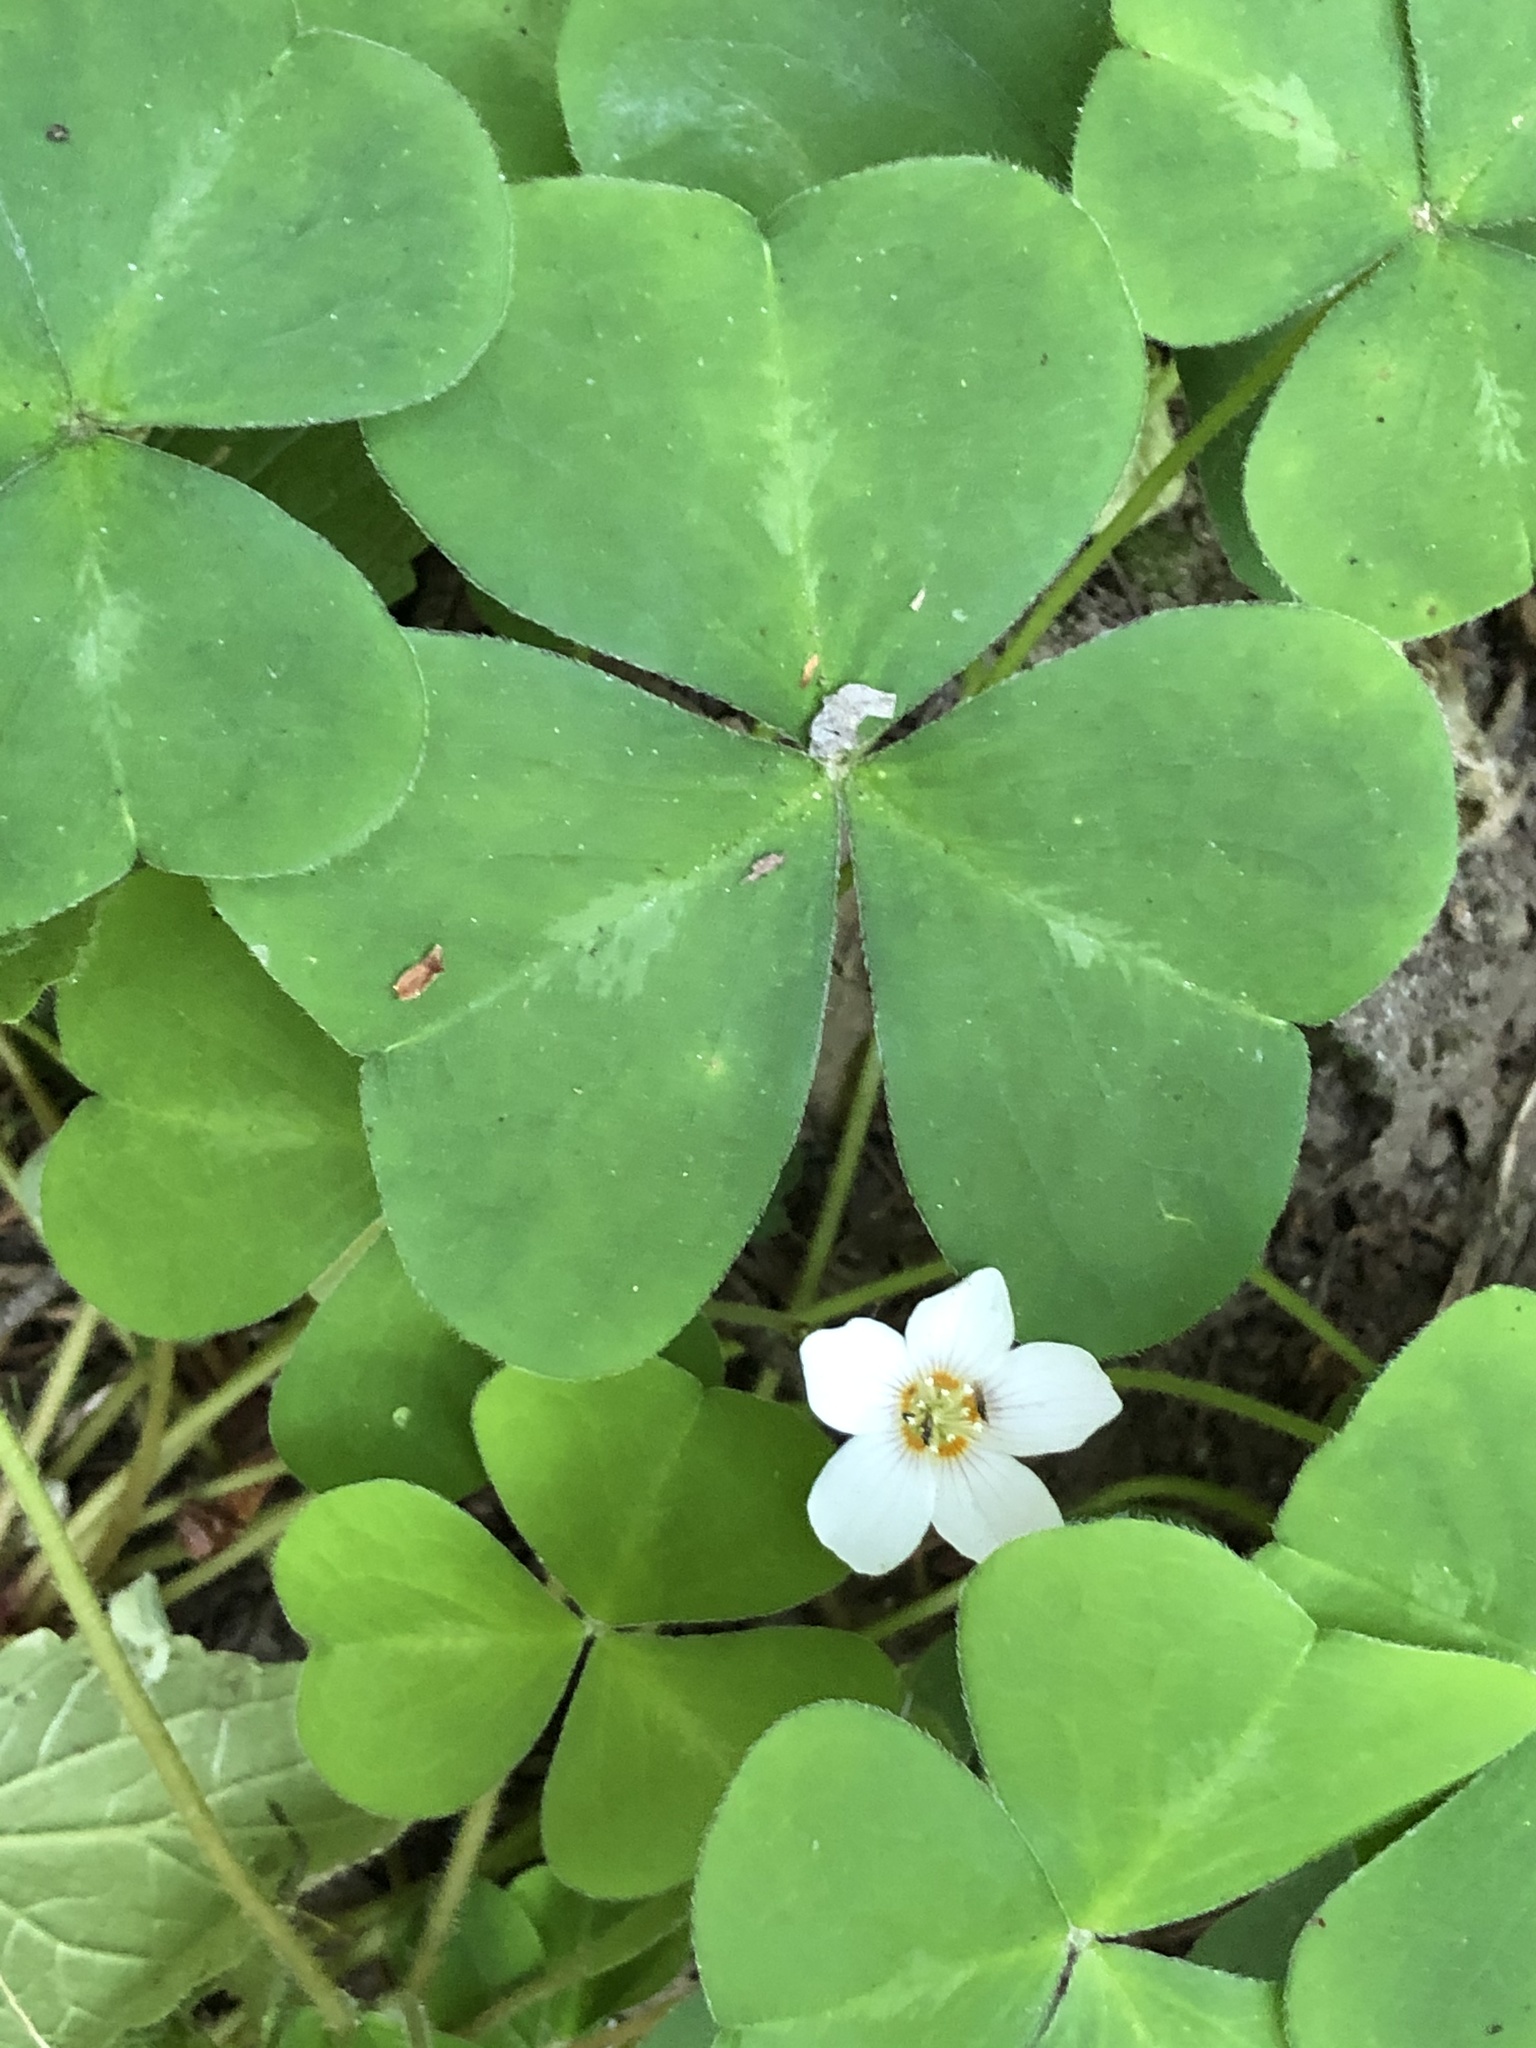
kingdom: Plantae
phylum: Tracheophyta
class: Magnoliopsida
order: Oxalidales
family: Oxalidaceae
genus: Oxalis
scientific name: Oxalis oregana
